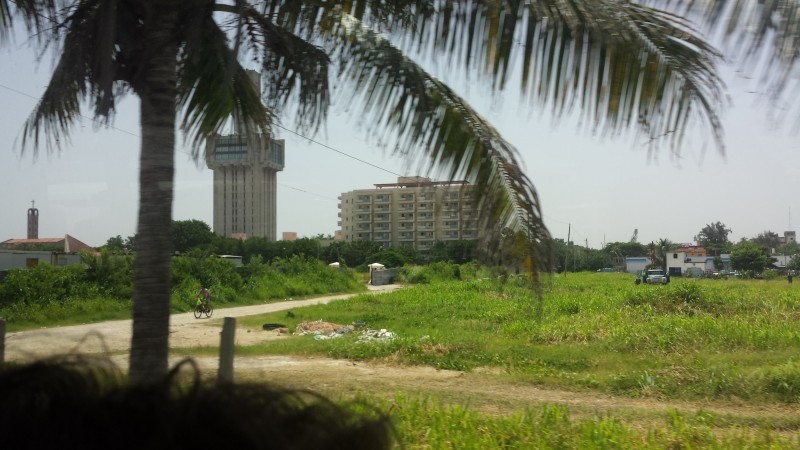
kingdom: Plantae
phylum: Tracheophyta
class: Liliopsida
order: Arecales
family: Arecaceae
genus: Cocos
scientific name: Cocos nucifera
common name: Coconut palm
